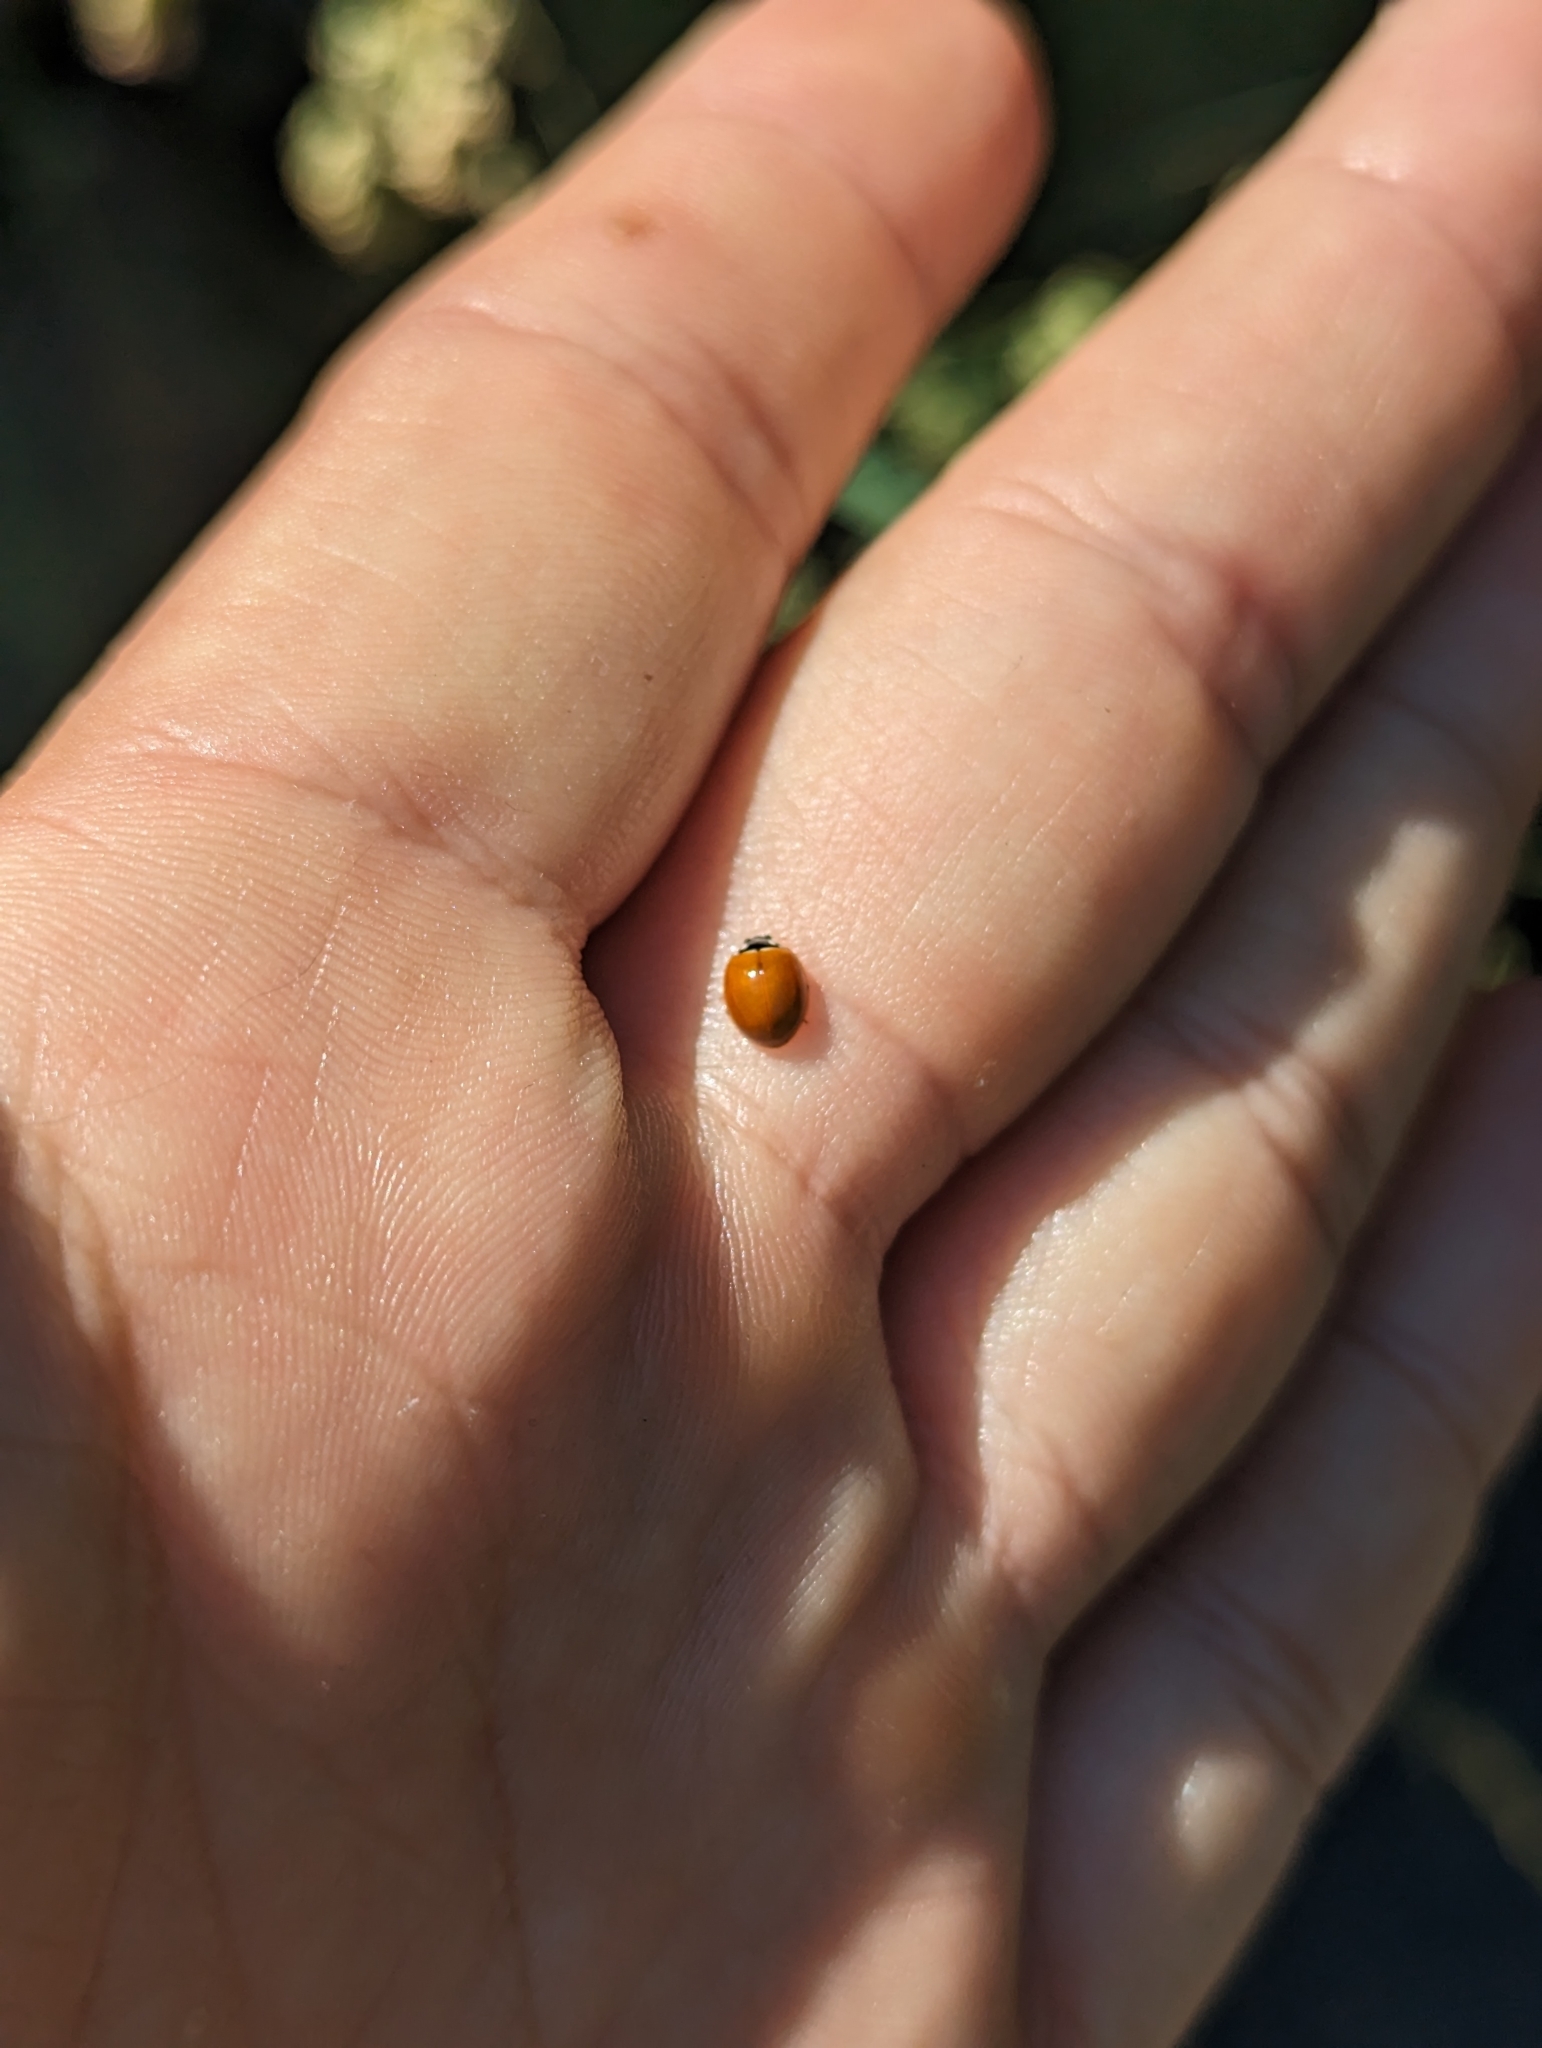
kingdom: Animalia
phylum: Arthropoda
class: Insecta
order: Coleoptera
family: Coccinellidae
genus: Cycloneda
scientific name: Cycloneda munda
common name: Polished lady beetle
